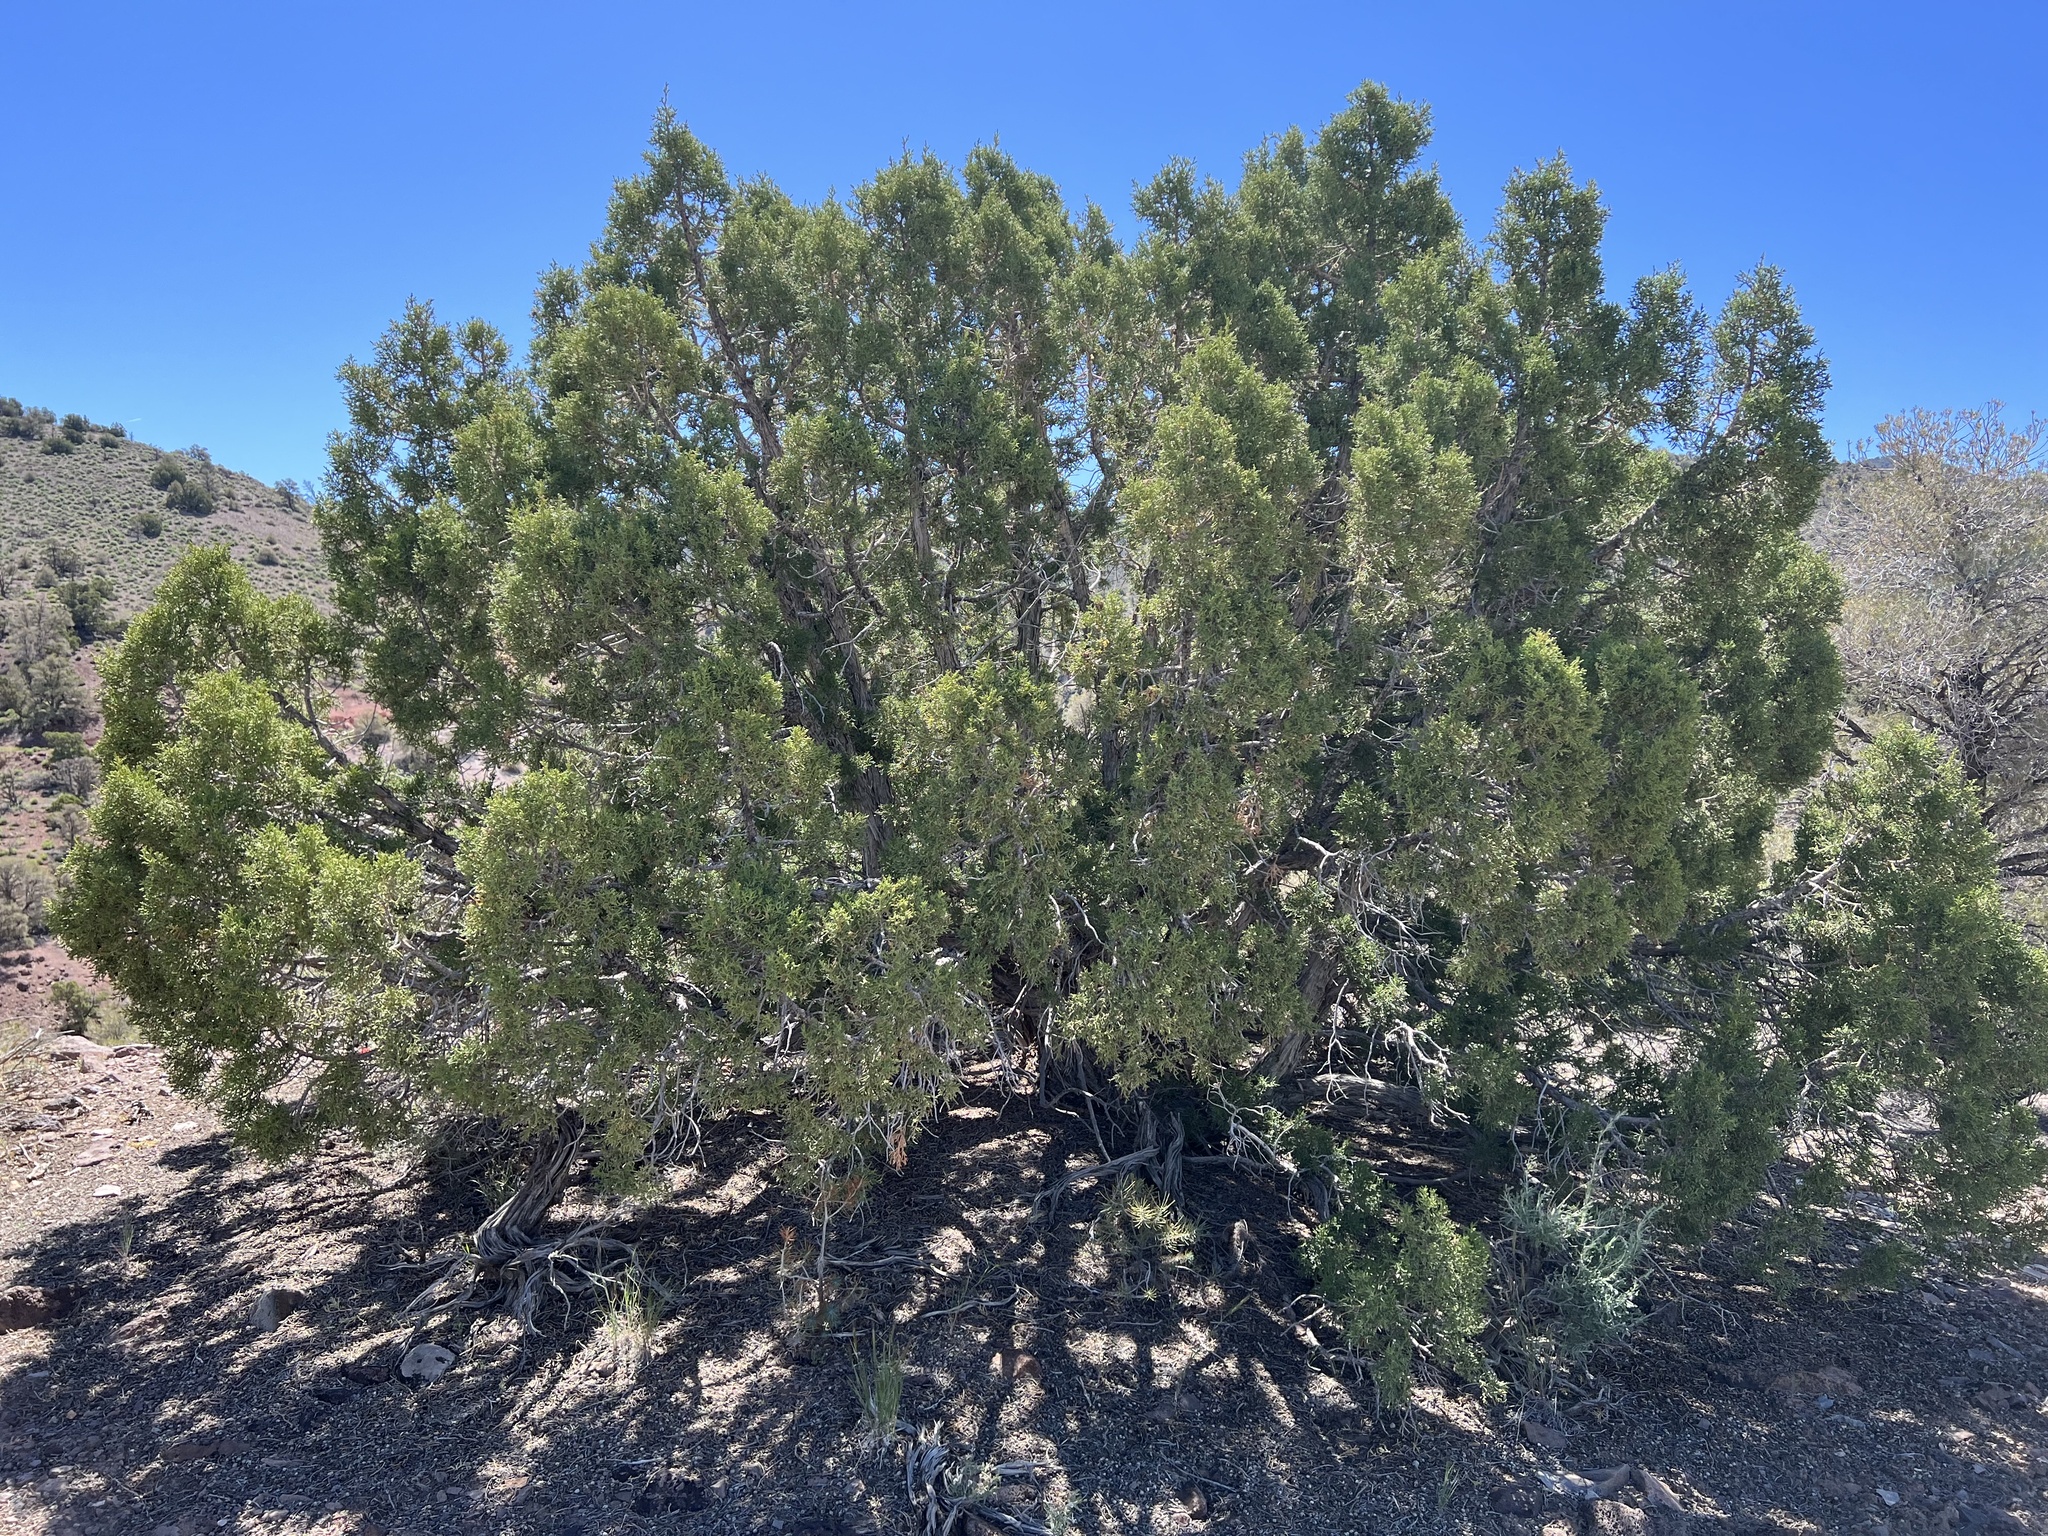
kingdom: Plantae
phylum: Tracheophyta
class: Pinopsida
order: Pinales
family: Cupressaceae
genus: Juniperus
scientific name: Juniperus osteosperma
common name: Utah juniper
